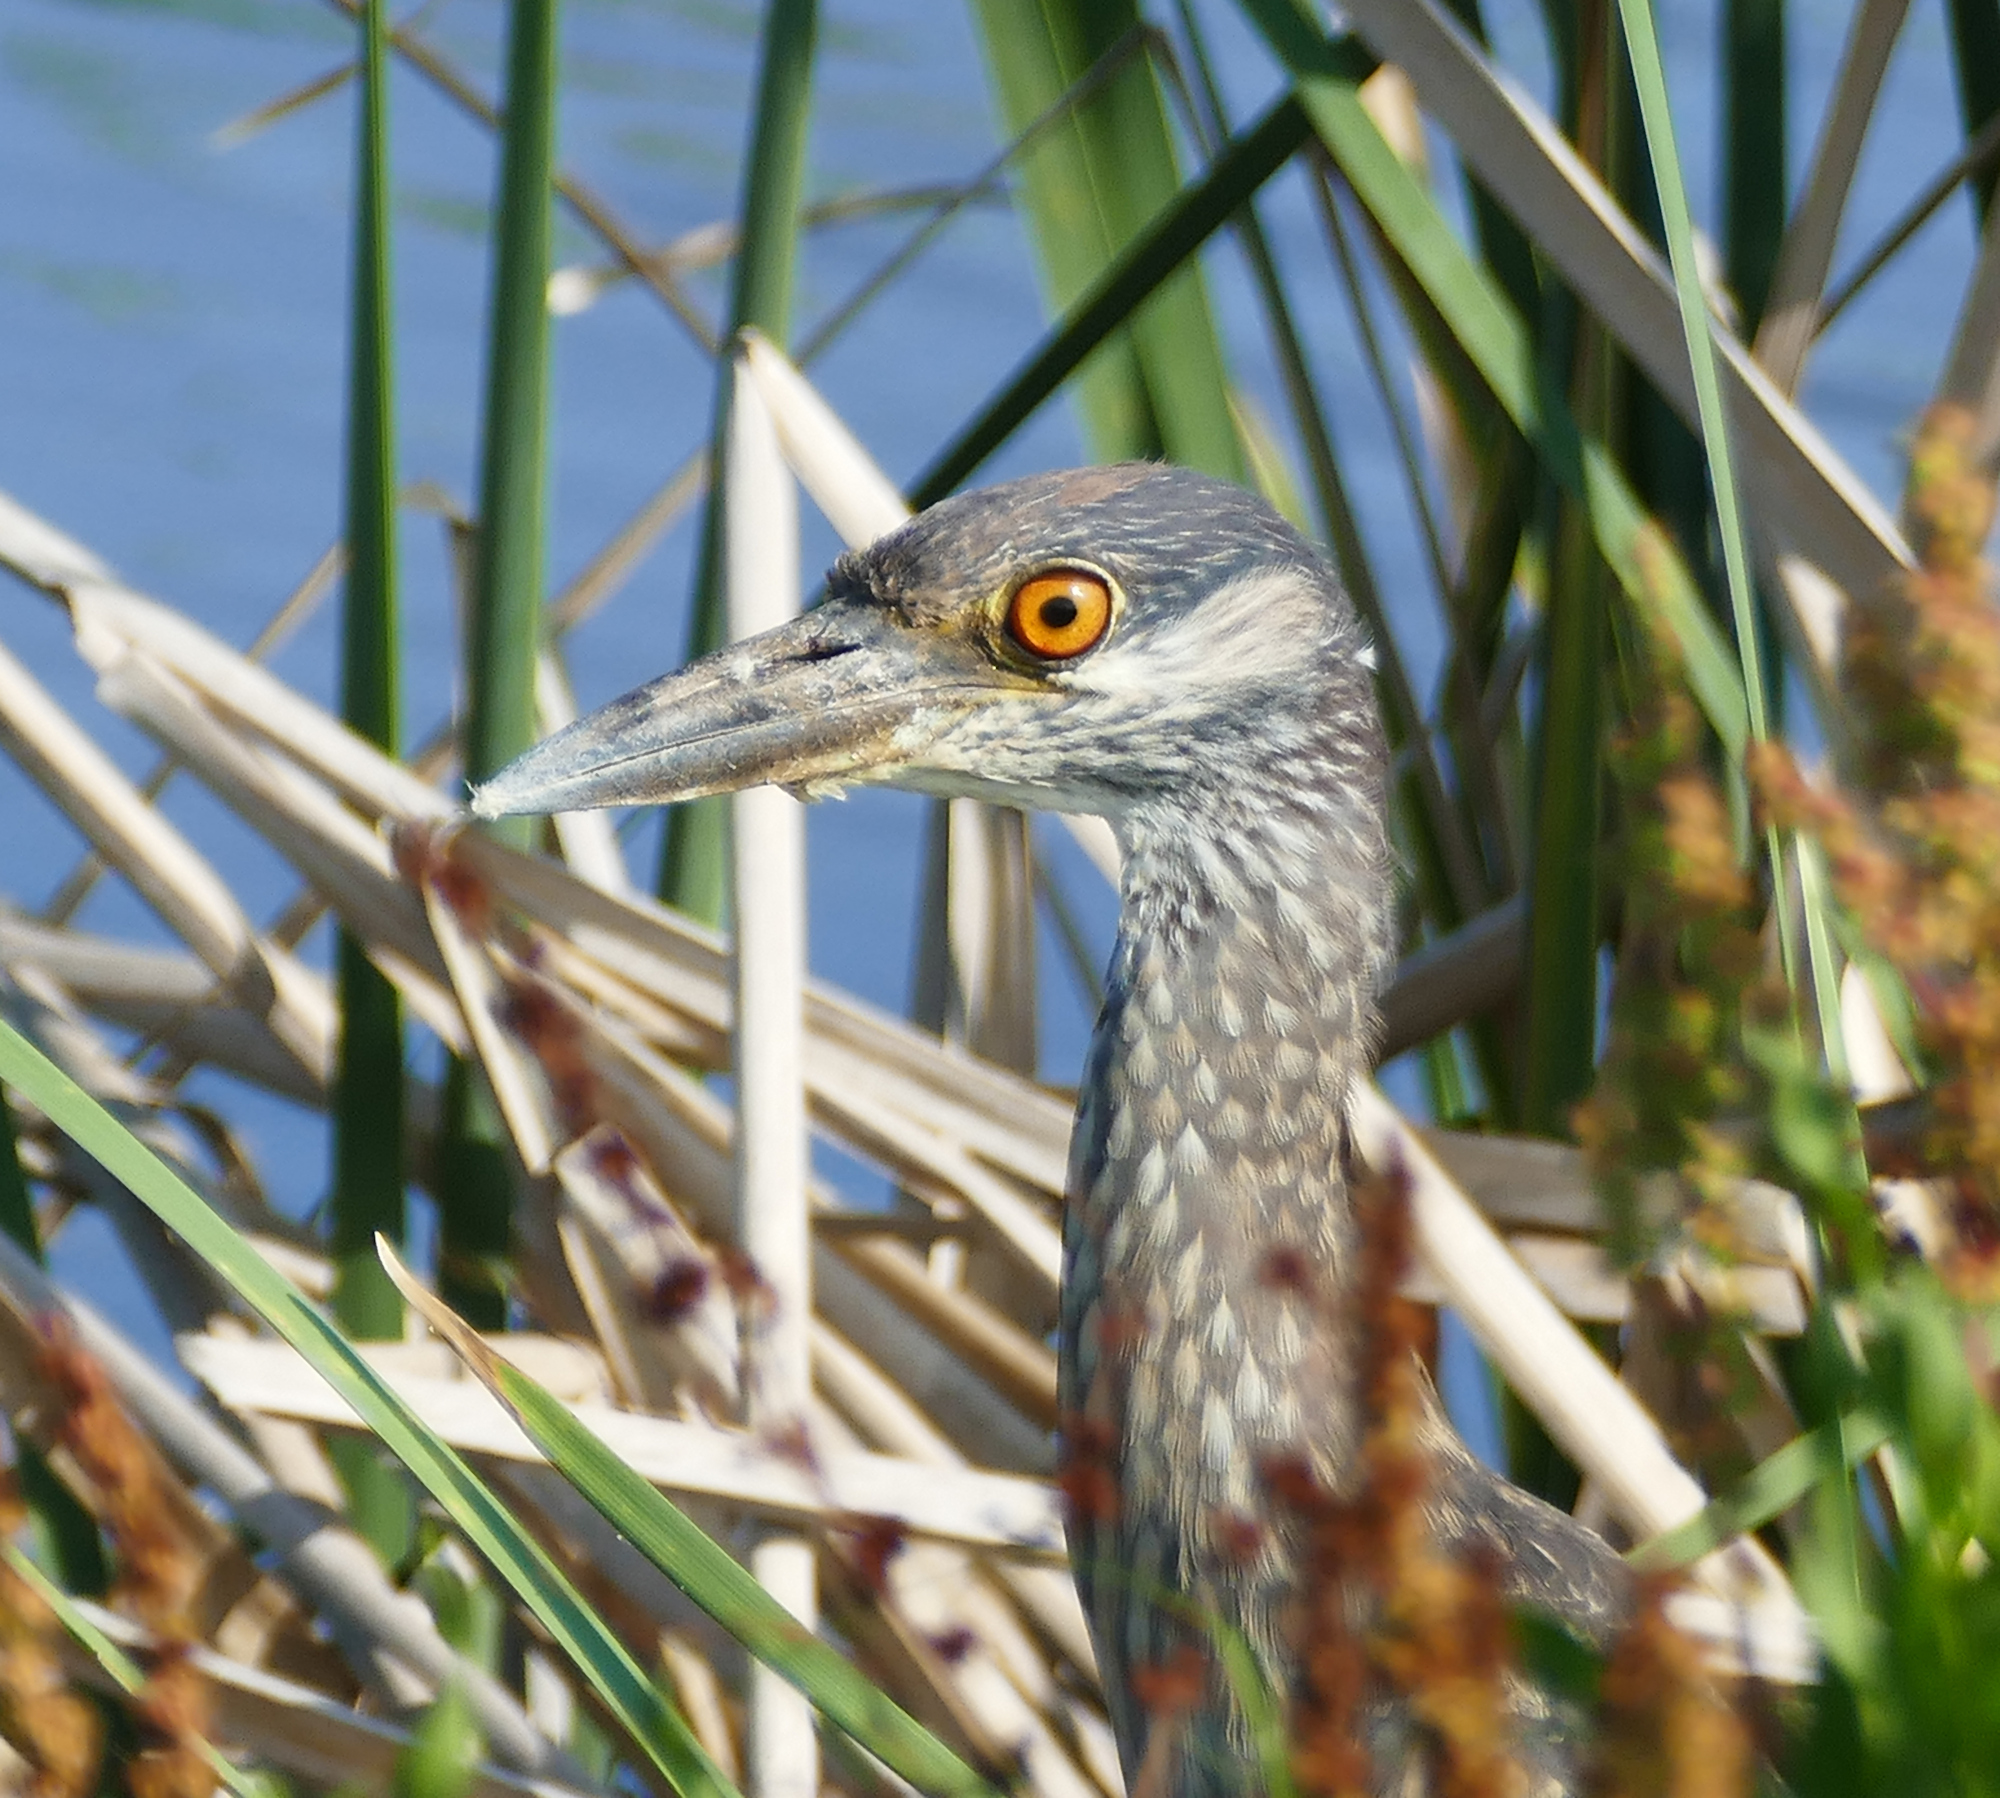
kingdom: Animalia
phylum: Chordata
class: Aves
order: Pelecaniformes
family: Ardeidae
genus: Nyctanassa
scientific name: Nyctanassa violacea
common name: Yellow-crowned night heron
